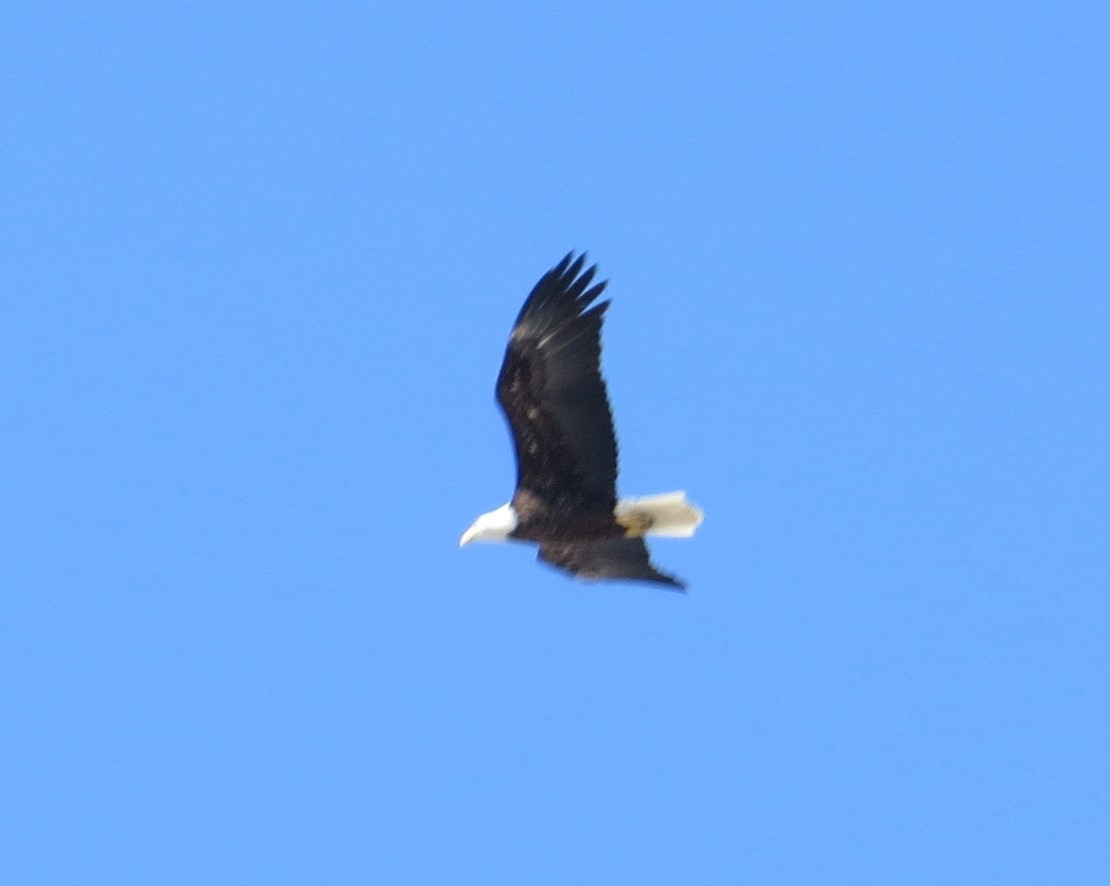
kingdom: Animalia
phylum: Chordata
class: Aves
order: Accipitriformes
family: Accipitridae
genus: Haliaeetus
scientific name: Haliaeetus leucocephalus
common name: Bald eagle
